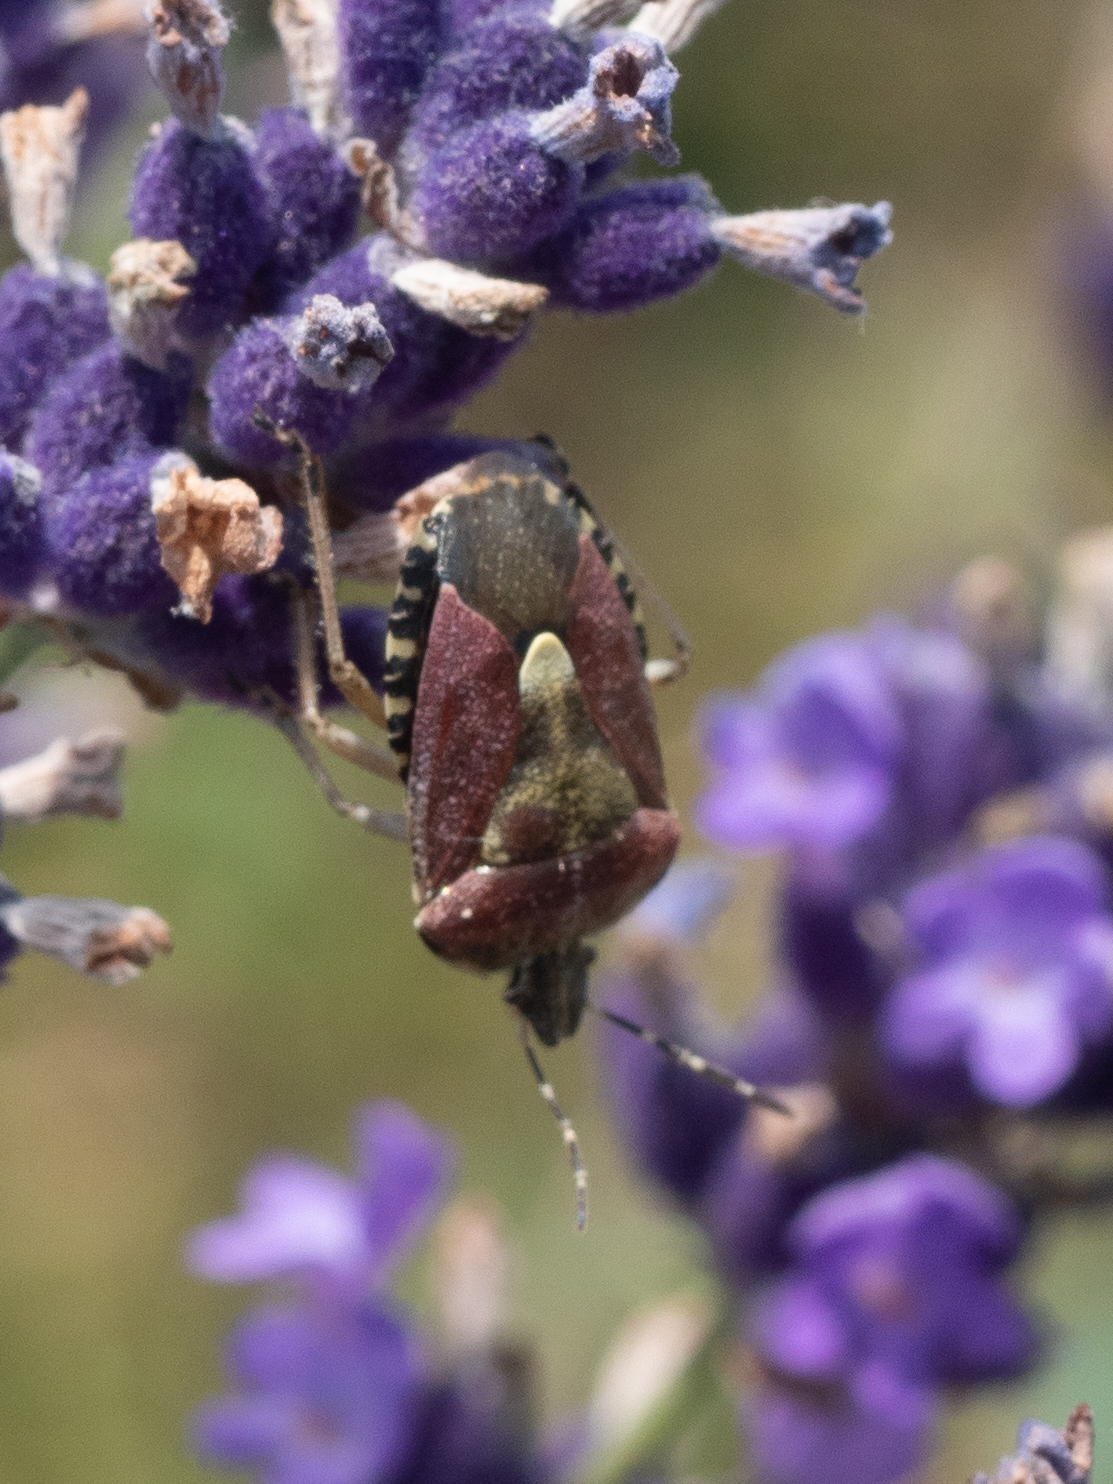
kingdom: Animalia
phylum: Arthropoda
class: Insecta
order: Hemiptera
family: Pentatomidae
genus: Dolycoris
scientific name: Dolycoris baccarum
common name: Sloe bug
